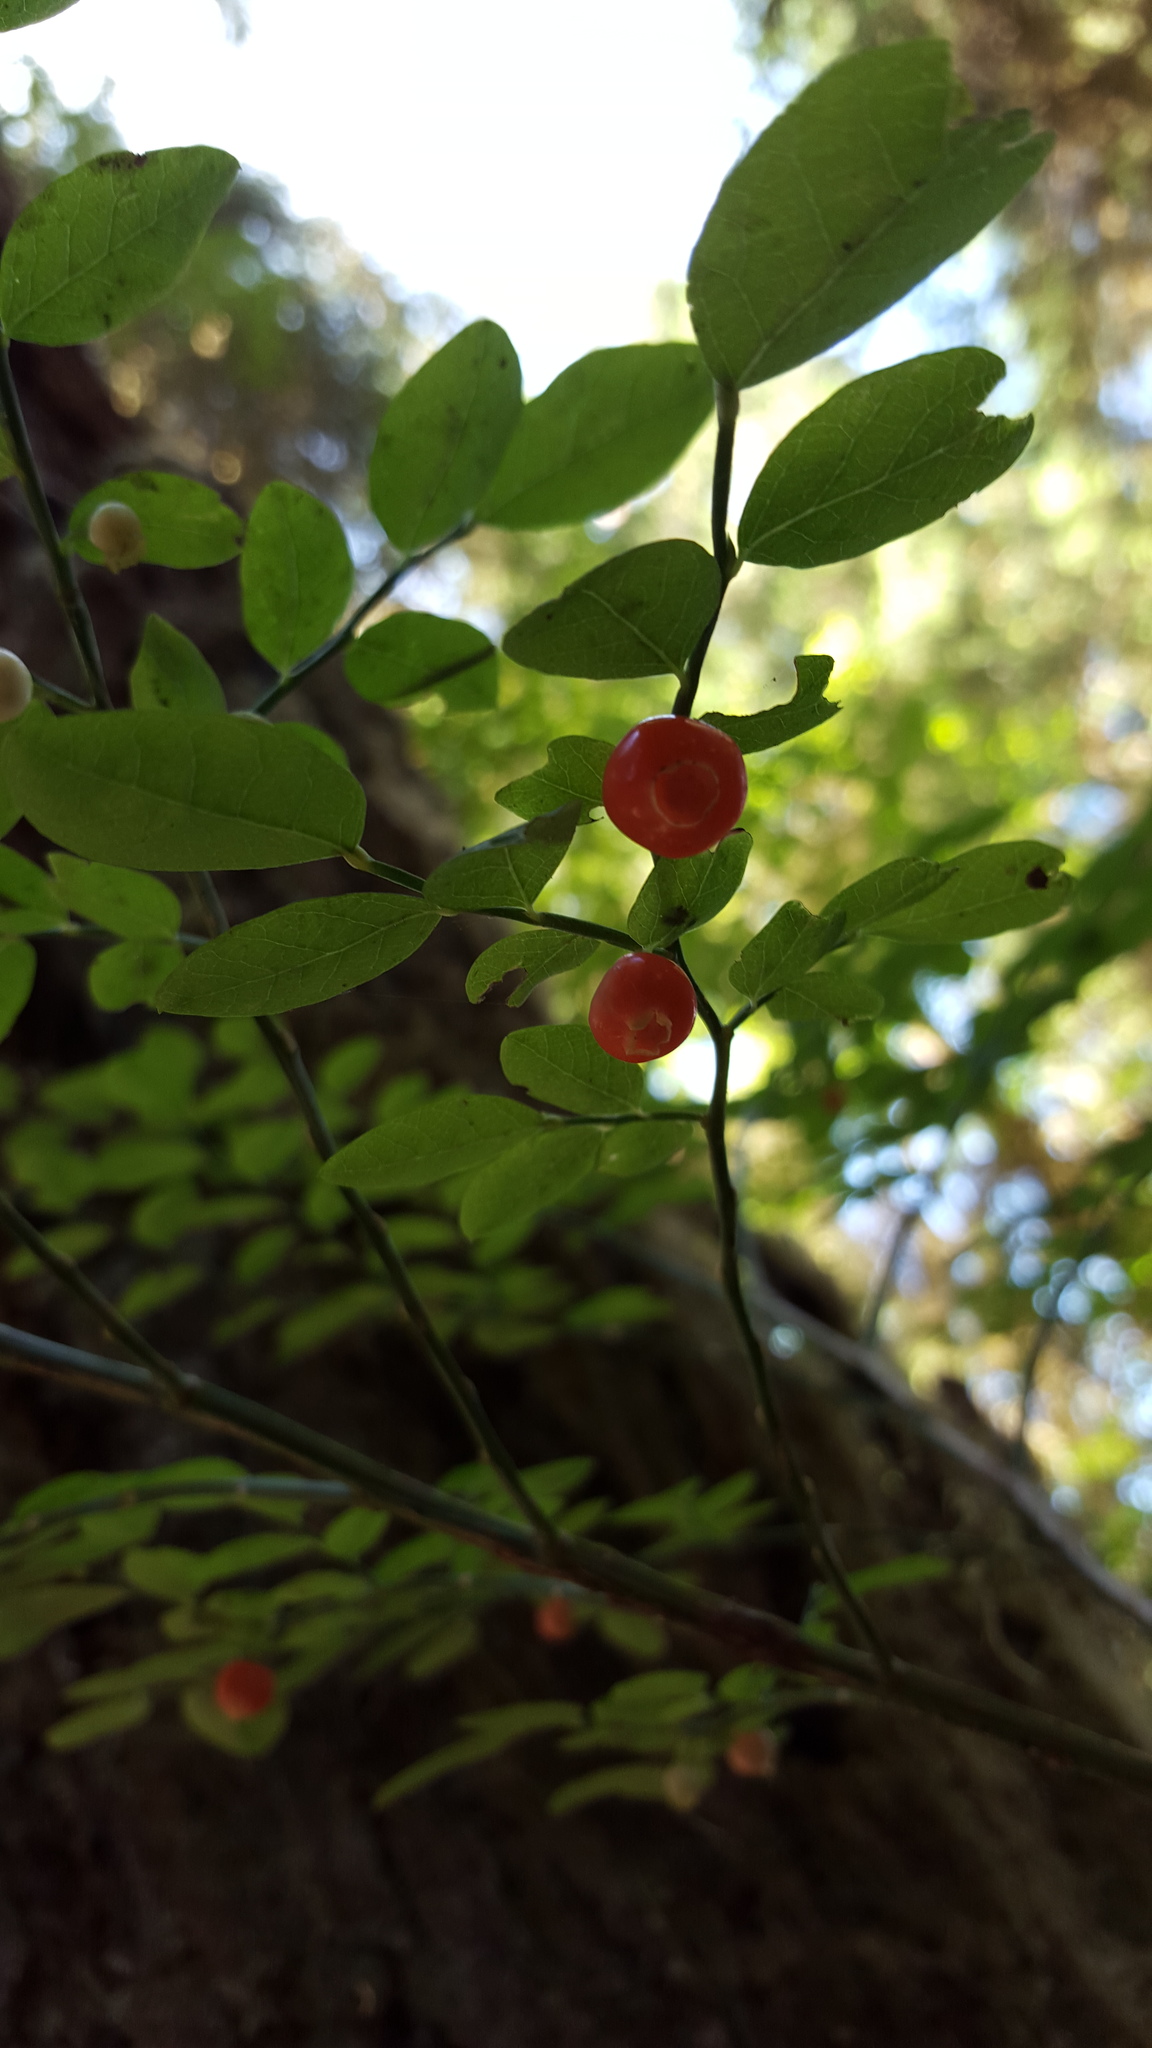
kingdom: Plantae
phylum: Tracheophyta
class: Magnoliopsida
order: Ericales
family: Ericaceae
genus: Vaccinium
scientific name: Vaccinium parvifolium
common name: Red-huckleberry
